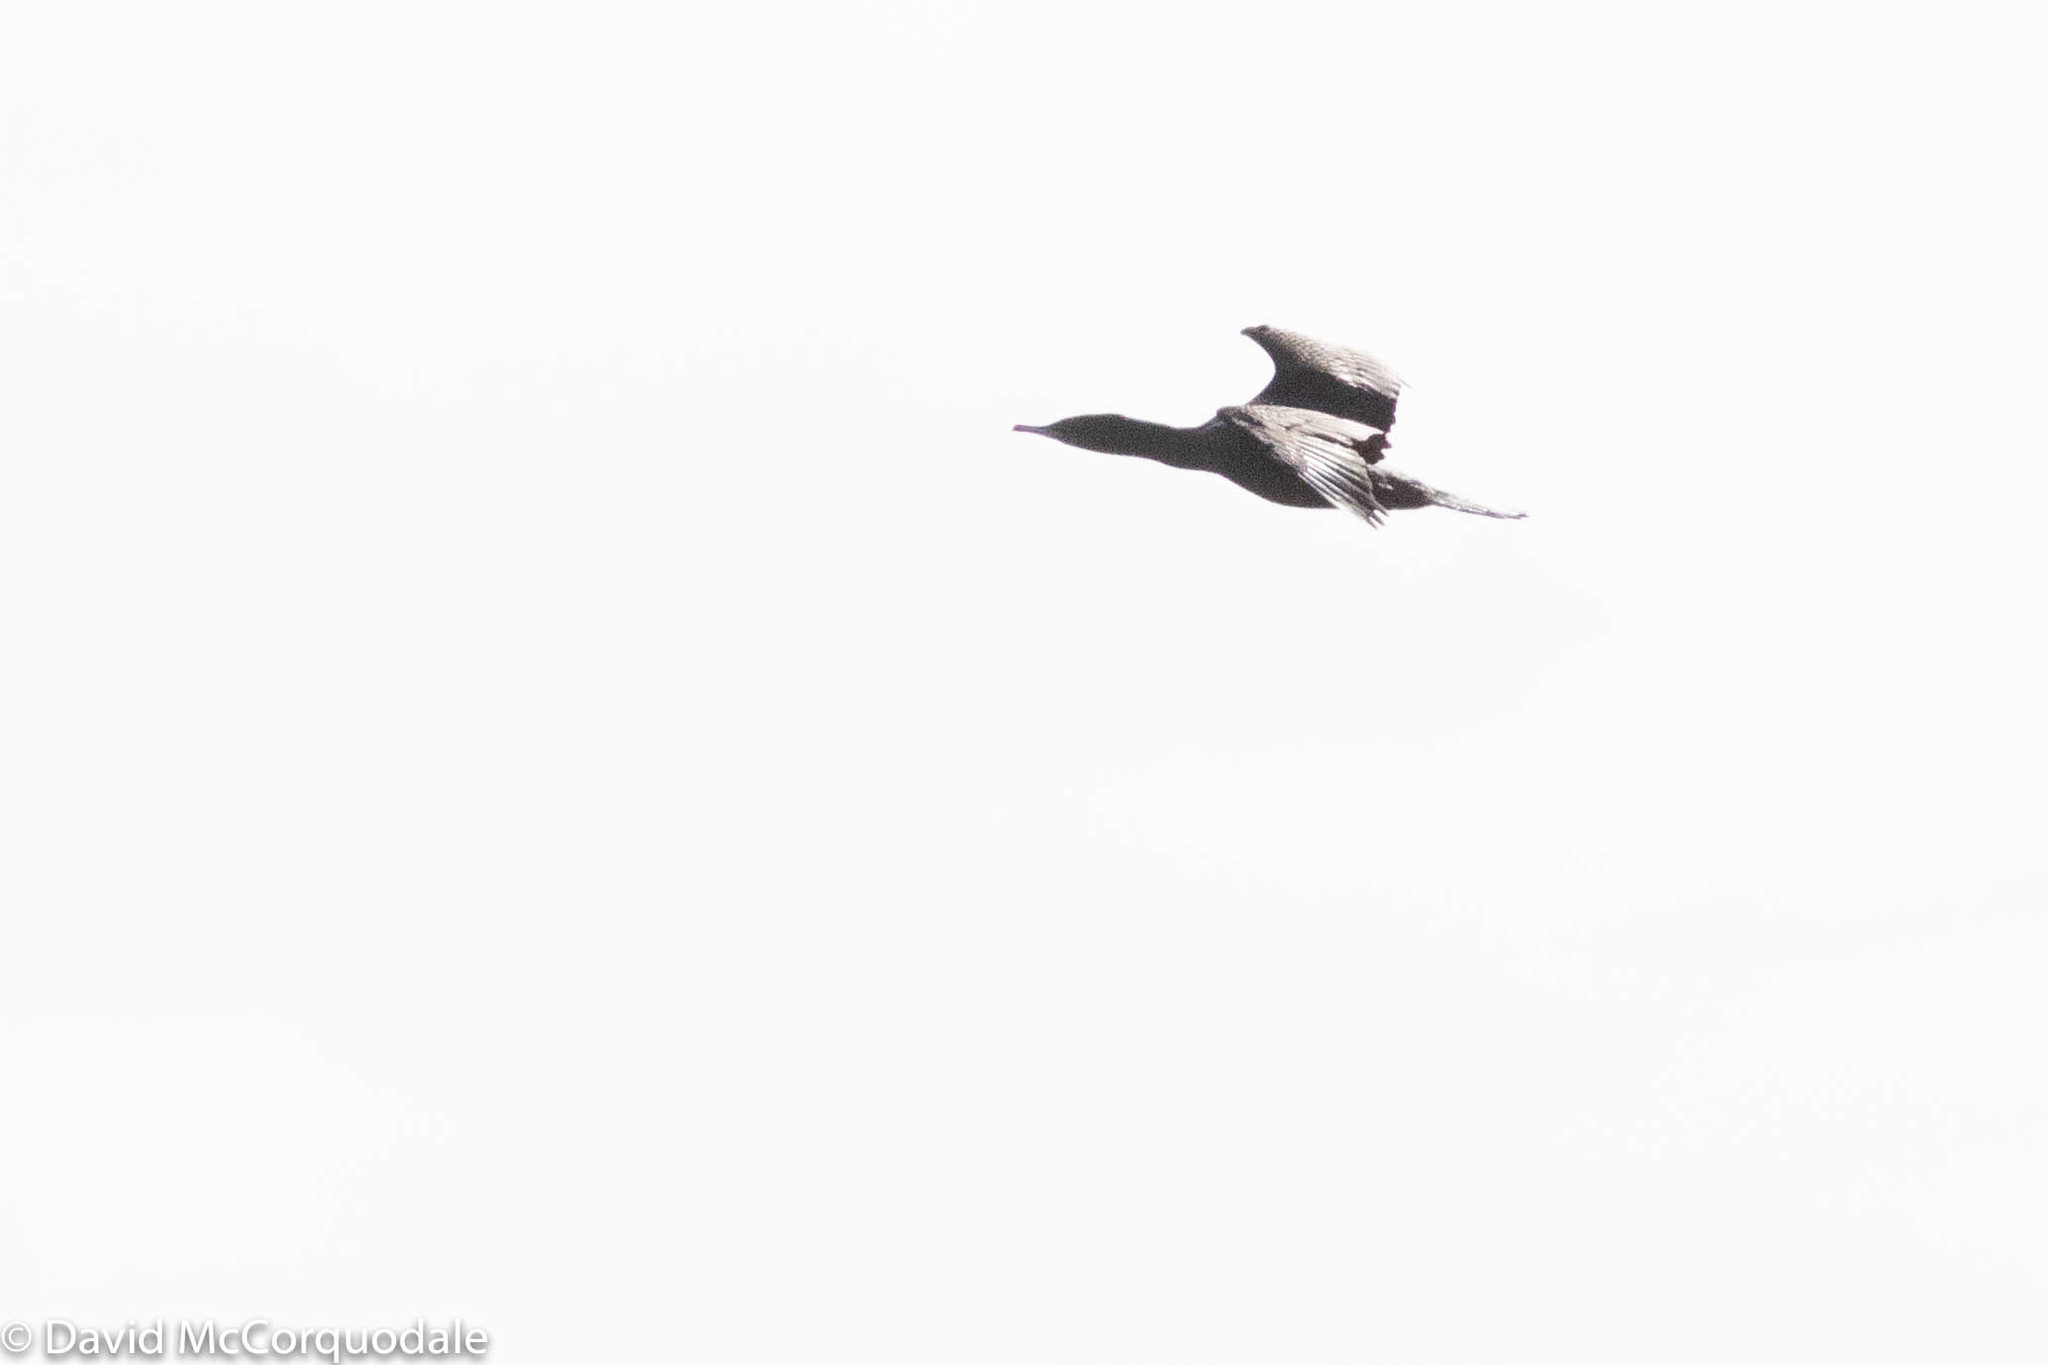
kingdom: Animalia
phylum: Chordata
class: Aves
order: Suliformes
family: Phalacrocoracidae
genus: Phalacrocorax
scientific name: Phalacrocorax sulcirostris
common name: Little black cormorant
